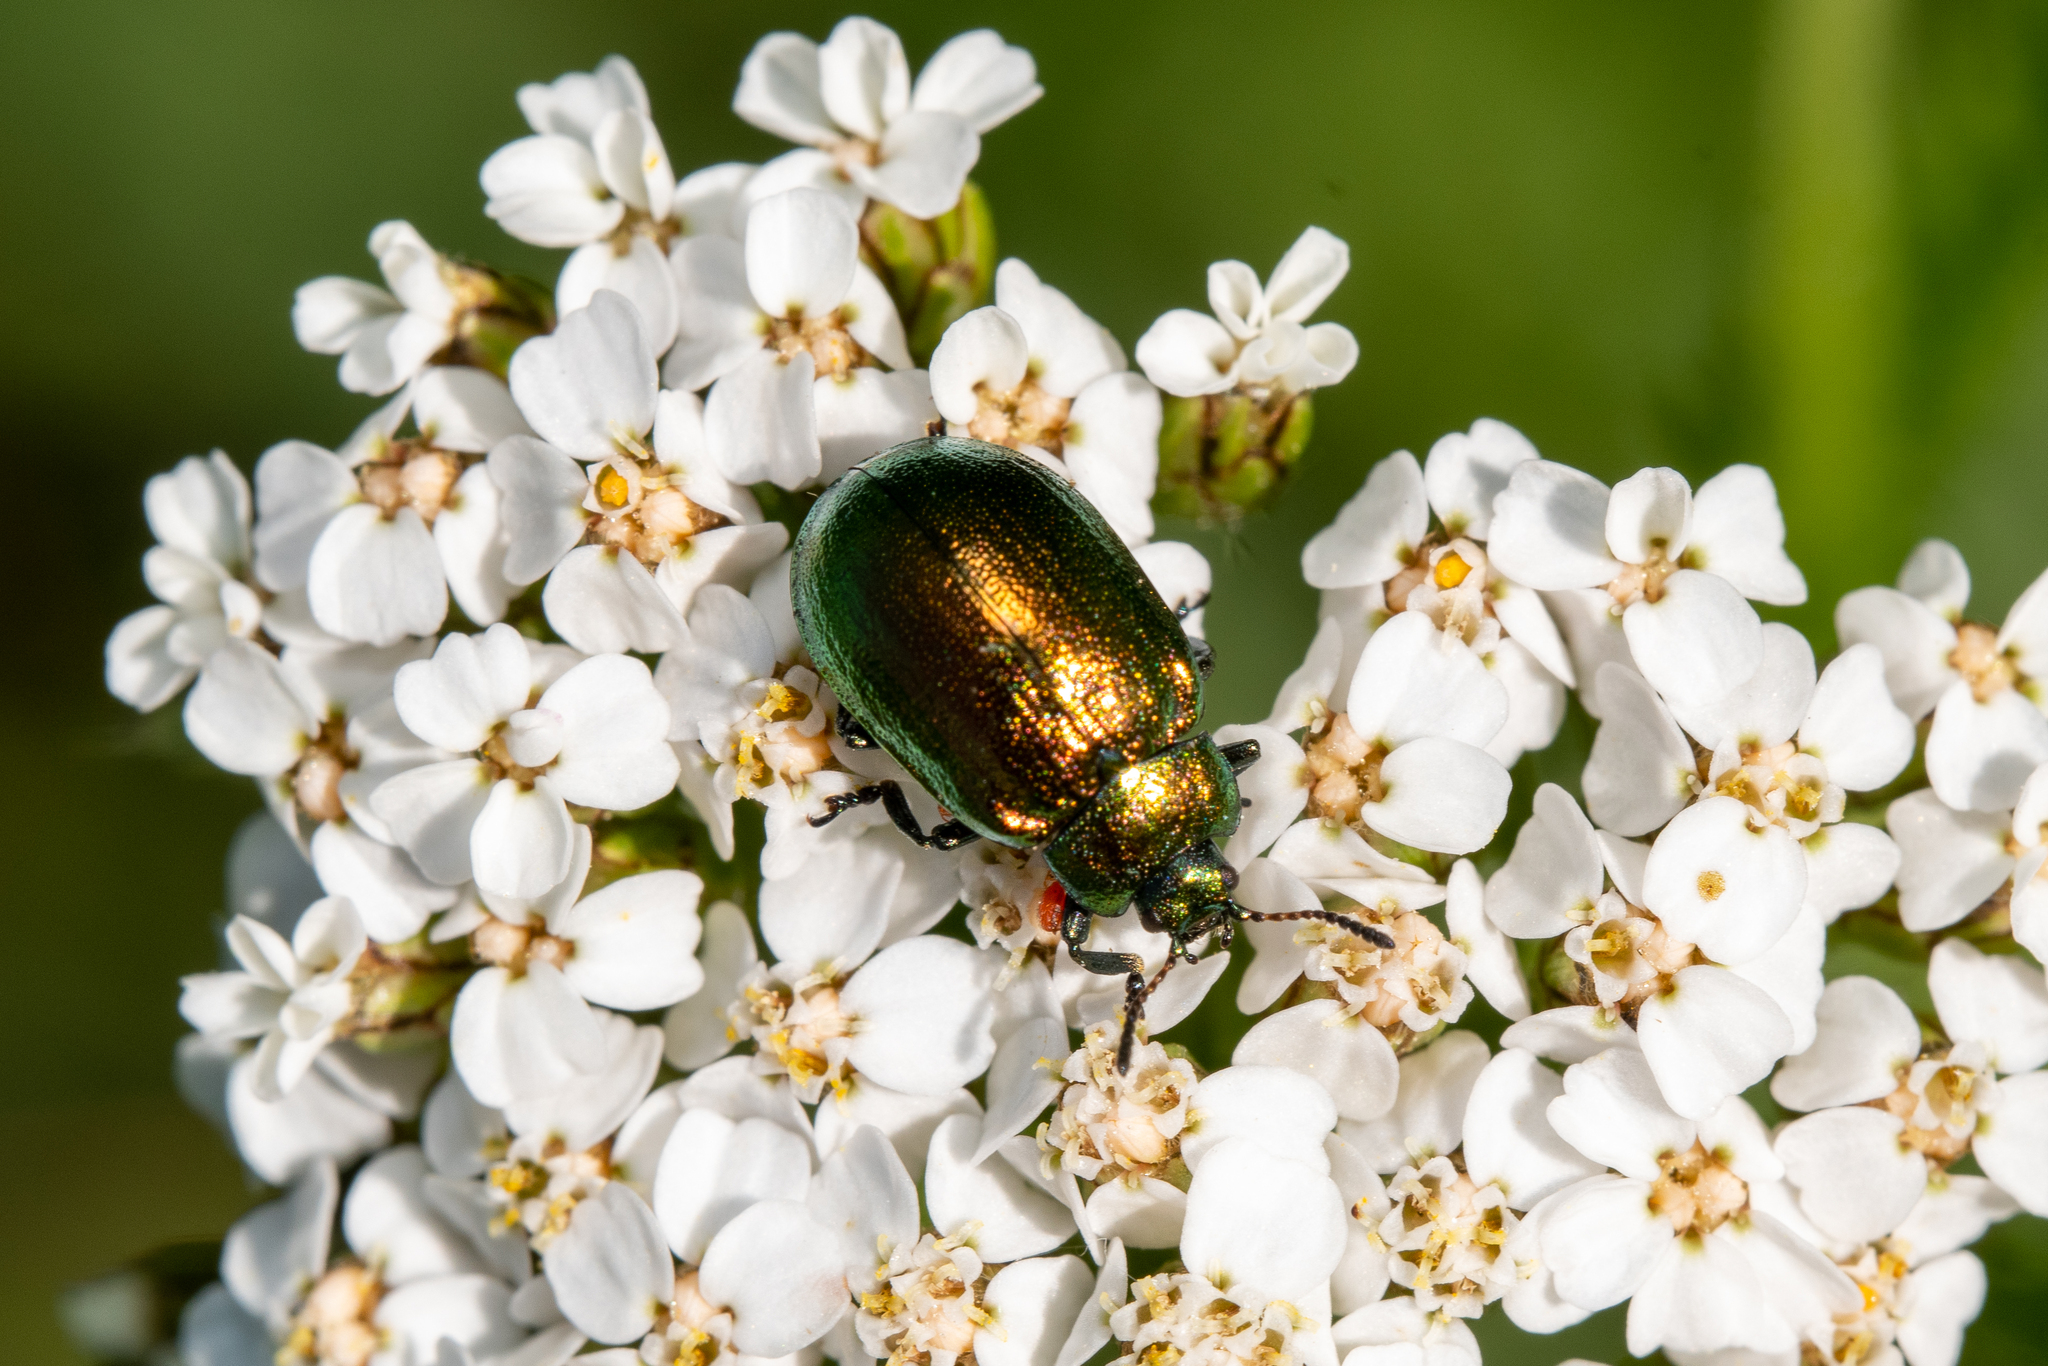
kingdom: Animalia
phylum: Arthropoda
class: Insecta
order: Coleoptera
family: Chrysomelidae
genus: Plagiosterna
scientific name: Plagiosterna aenea
